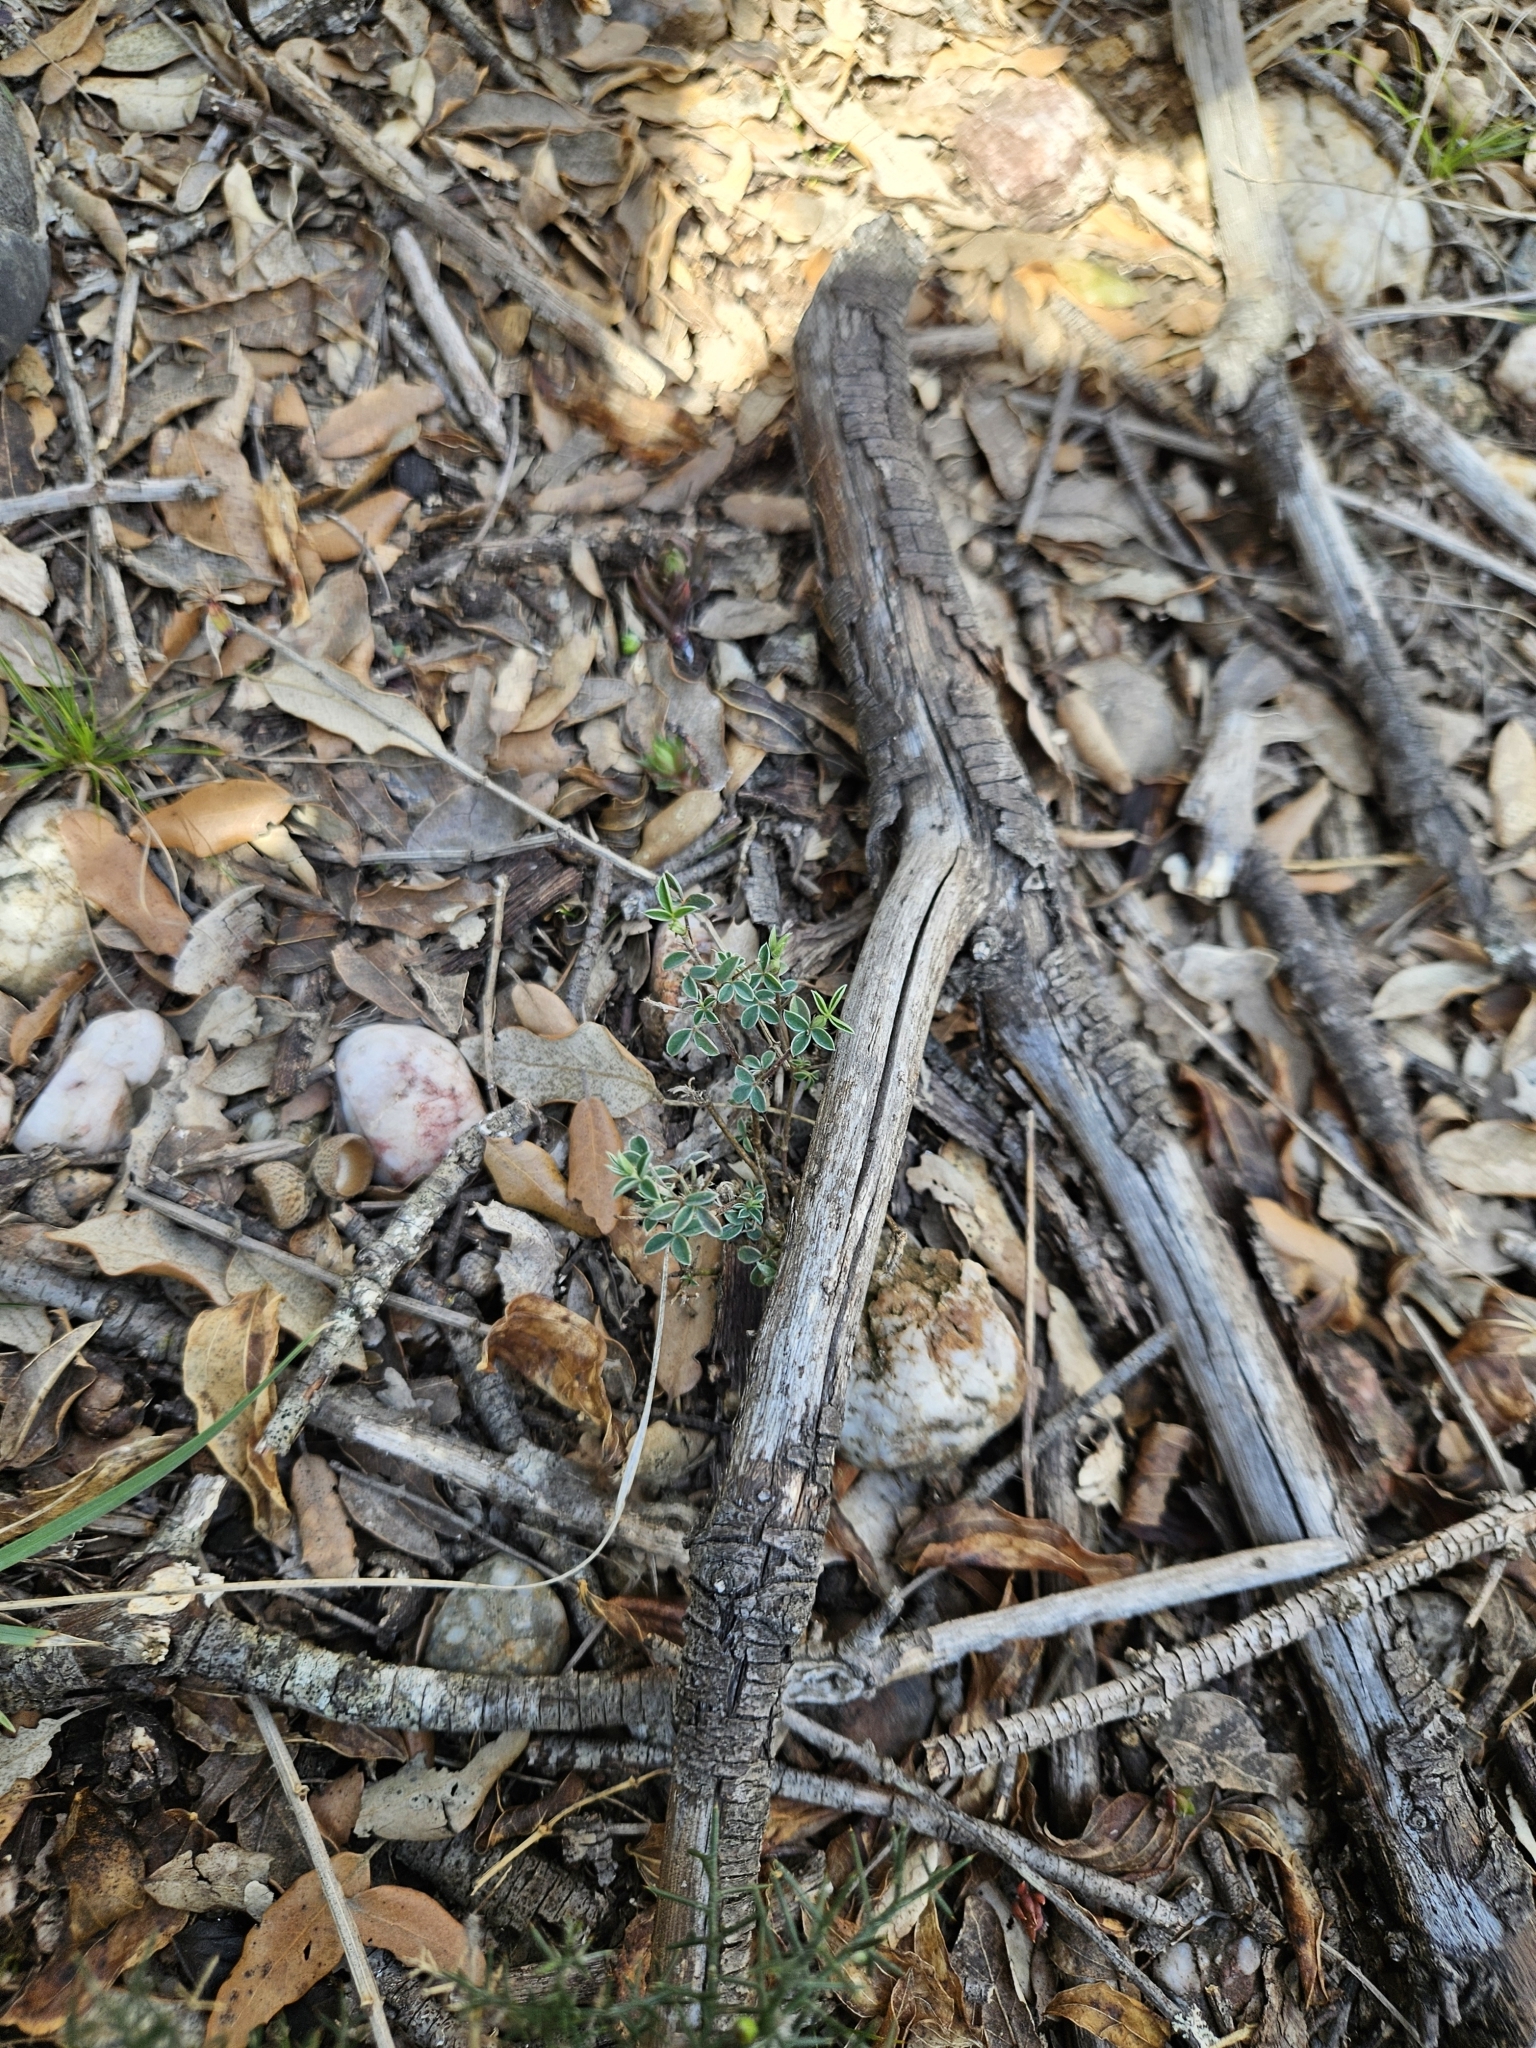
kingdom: Plantae
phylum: Tracheophyta
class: Magnoliopsida
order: Fabales
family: Fabaceae
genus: Argyrolobium
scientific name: Argyrolobium zanonii
